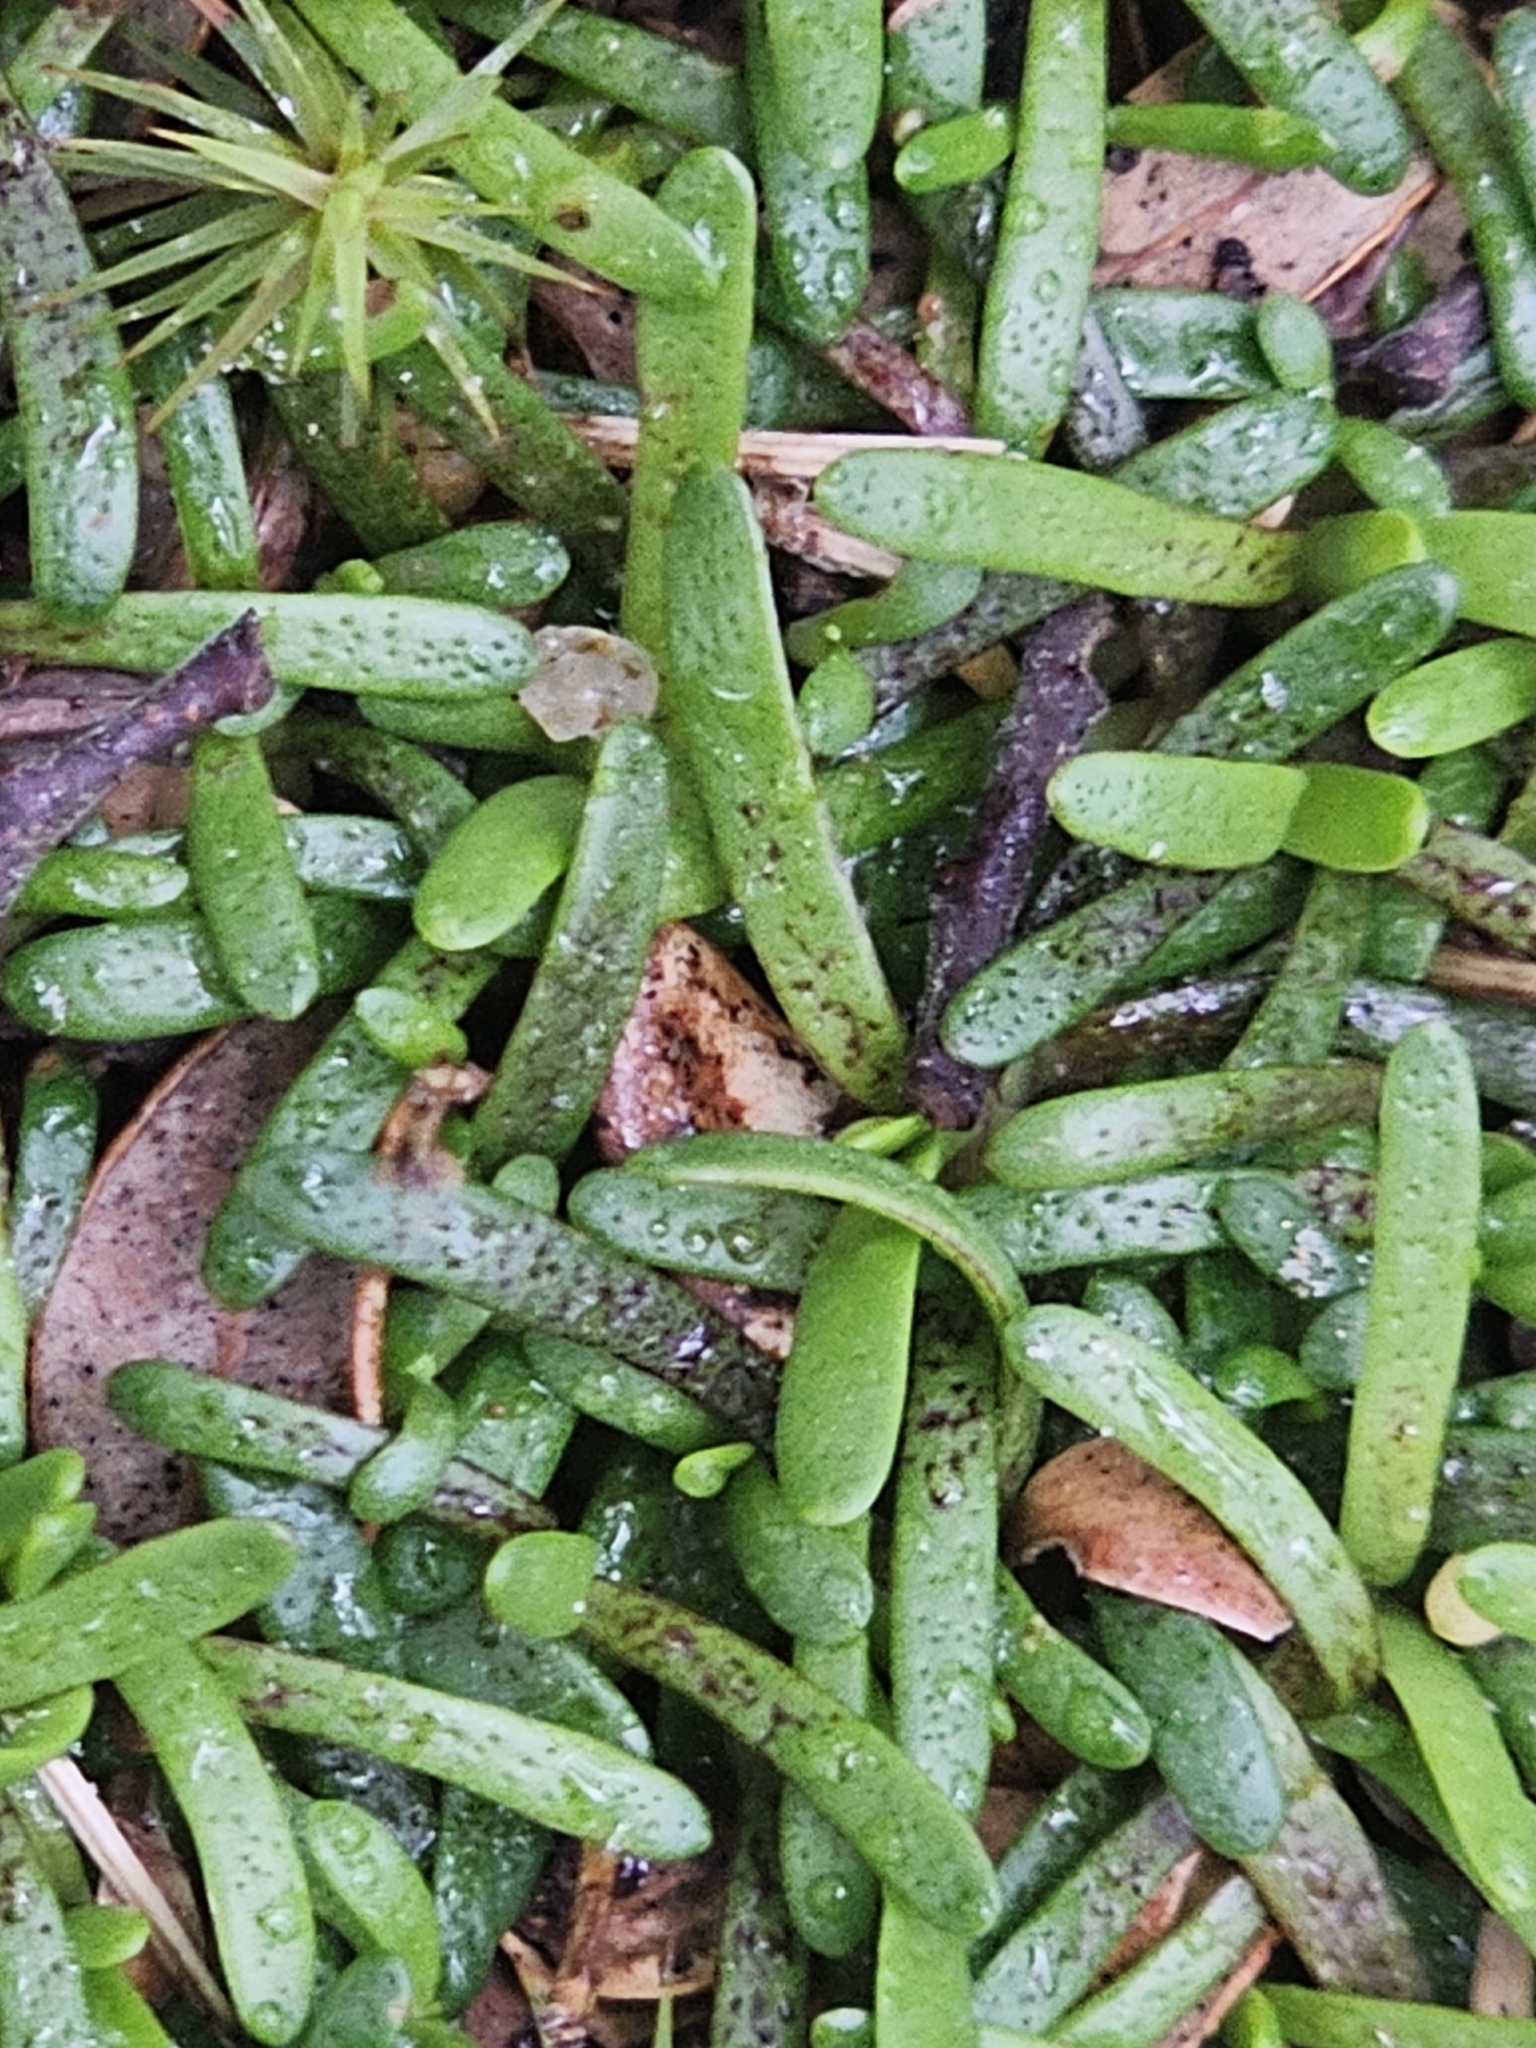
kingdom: Plantae
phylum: Tracheophyta
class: Magnoliopsida
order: Asterales
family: Asteraceae
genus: Abrotanella
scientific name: Abrotanella caespitosa
